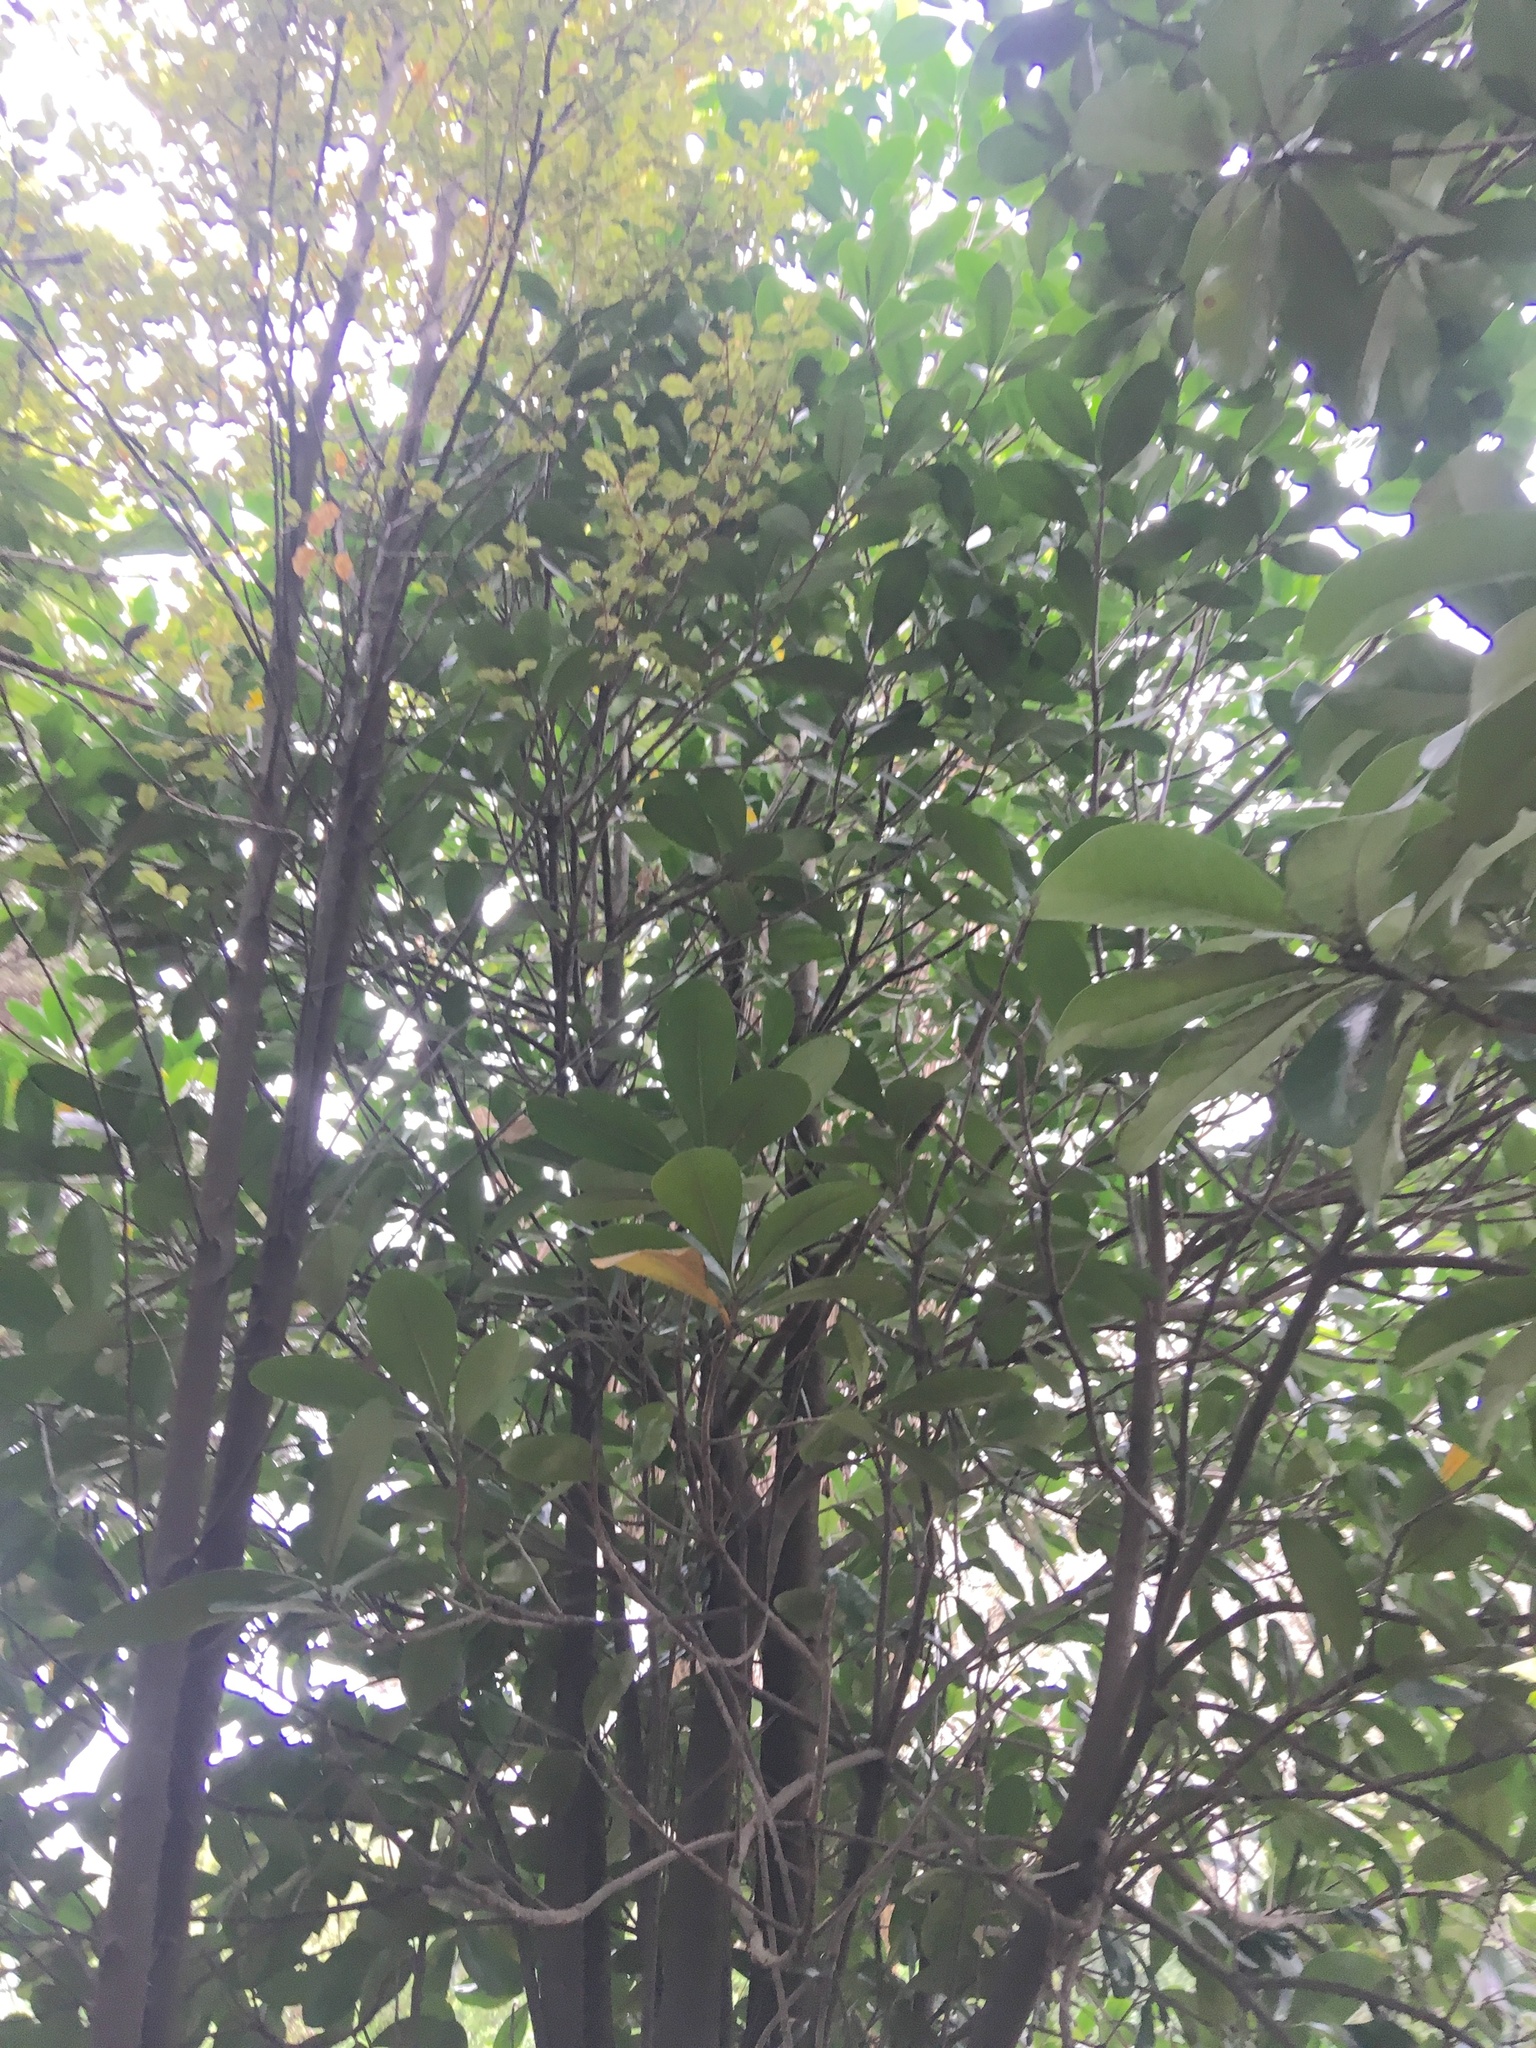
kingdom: Plantae
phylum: Tracheophyta
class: Magnoliopsida
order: Cucurbitales
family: Corynocarpaceae
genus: Corynocarpus
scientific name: Corynocarpus laevigatus
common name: New zealand laurel
